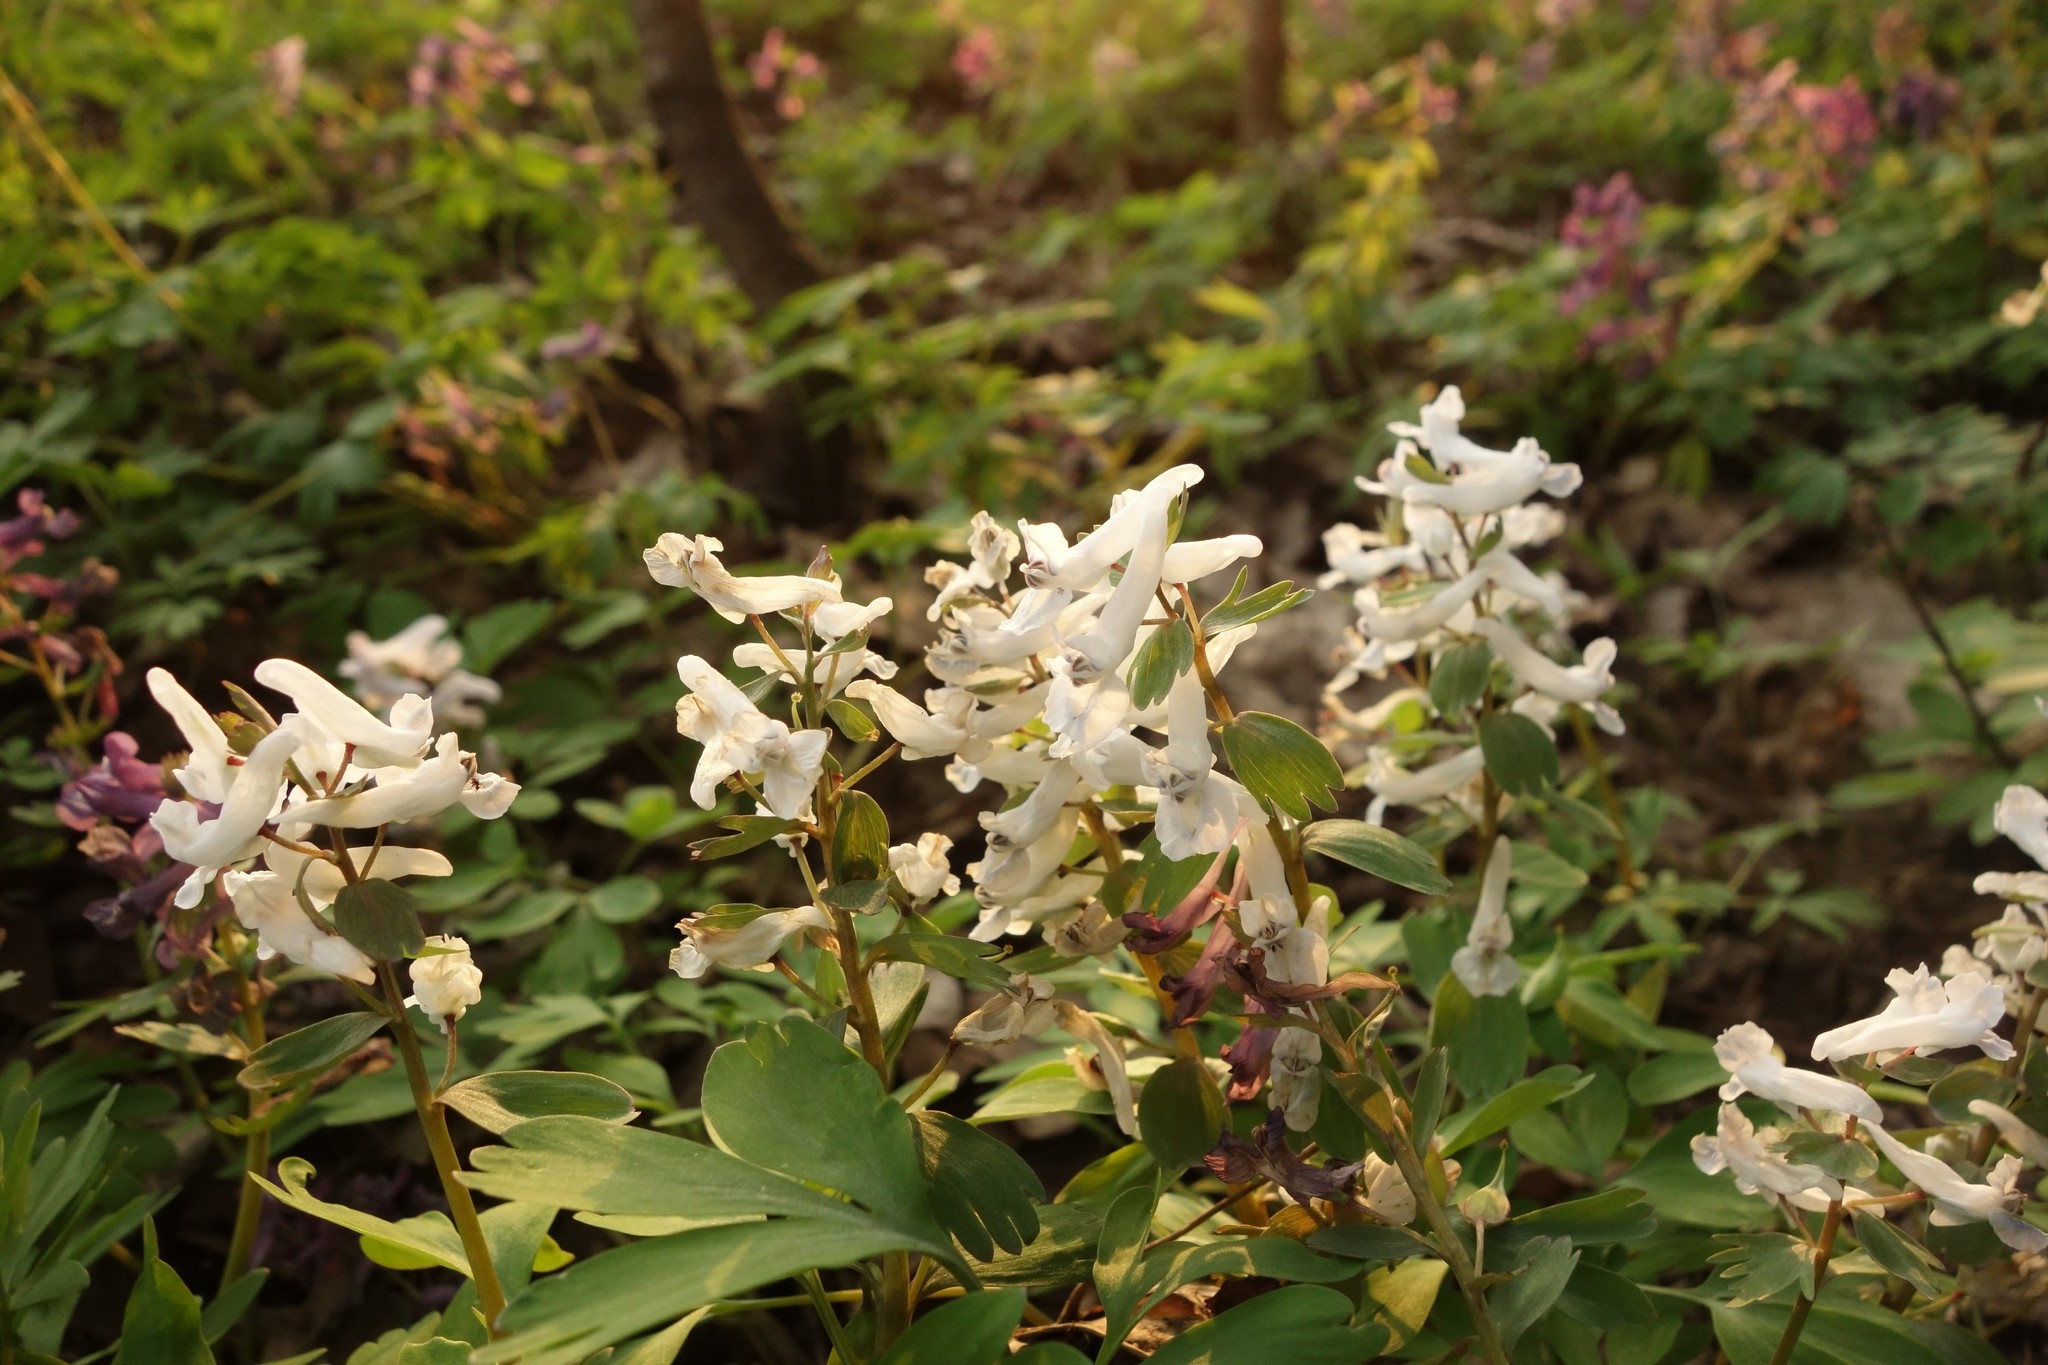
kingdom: Plantae
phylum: Tracheophyta
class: Magnoliopsida
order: Ranunculales
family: Papaveraceae
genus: Corydalis
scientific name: Corydalis solida
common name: Bird-in-a-bush
